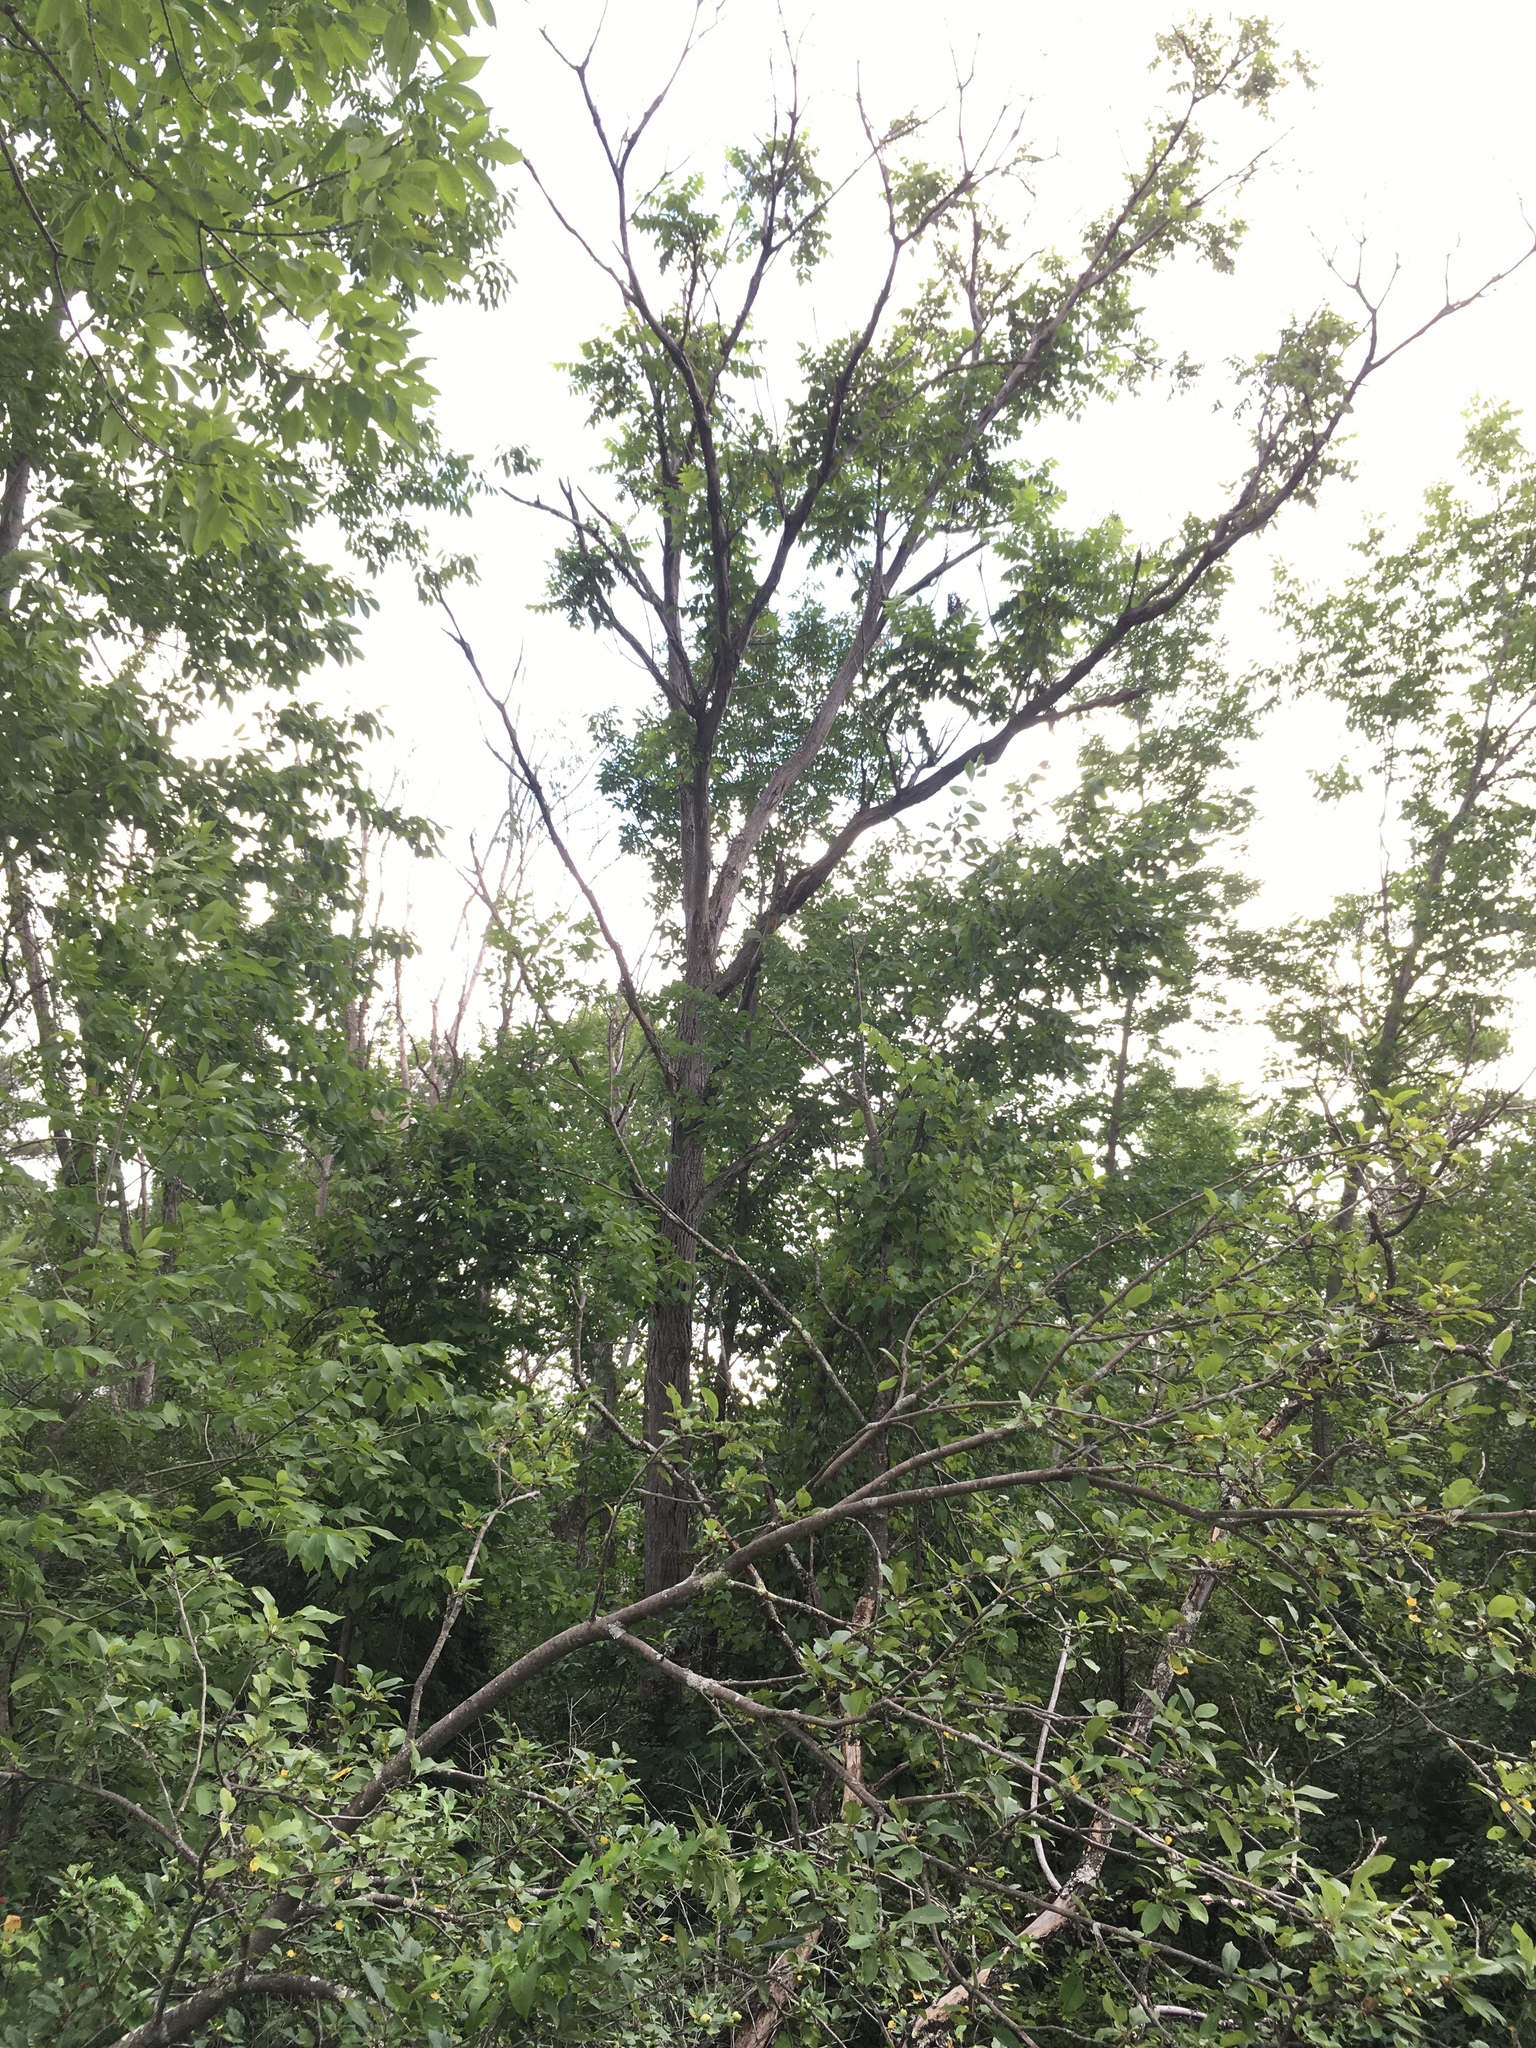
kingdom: Plantae
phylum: Tracheophyta
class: Magnoliopsida
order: Fagales
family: Juglandaceae
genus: Juglans
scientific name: Juglans cinerea
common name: Butternut
